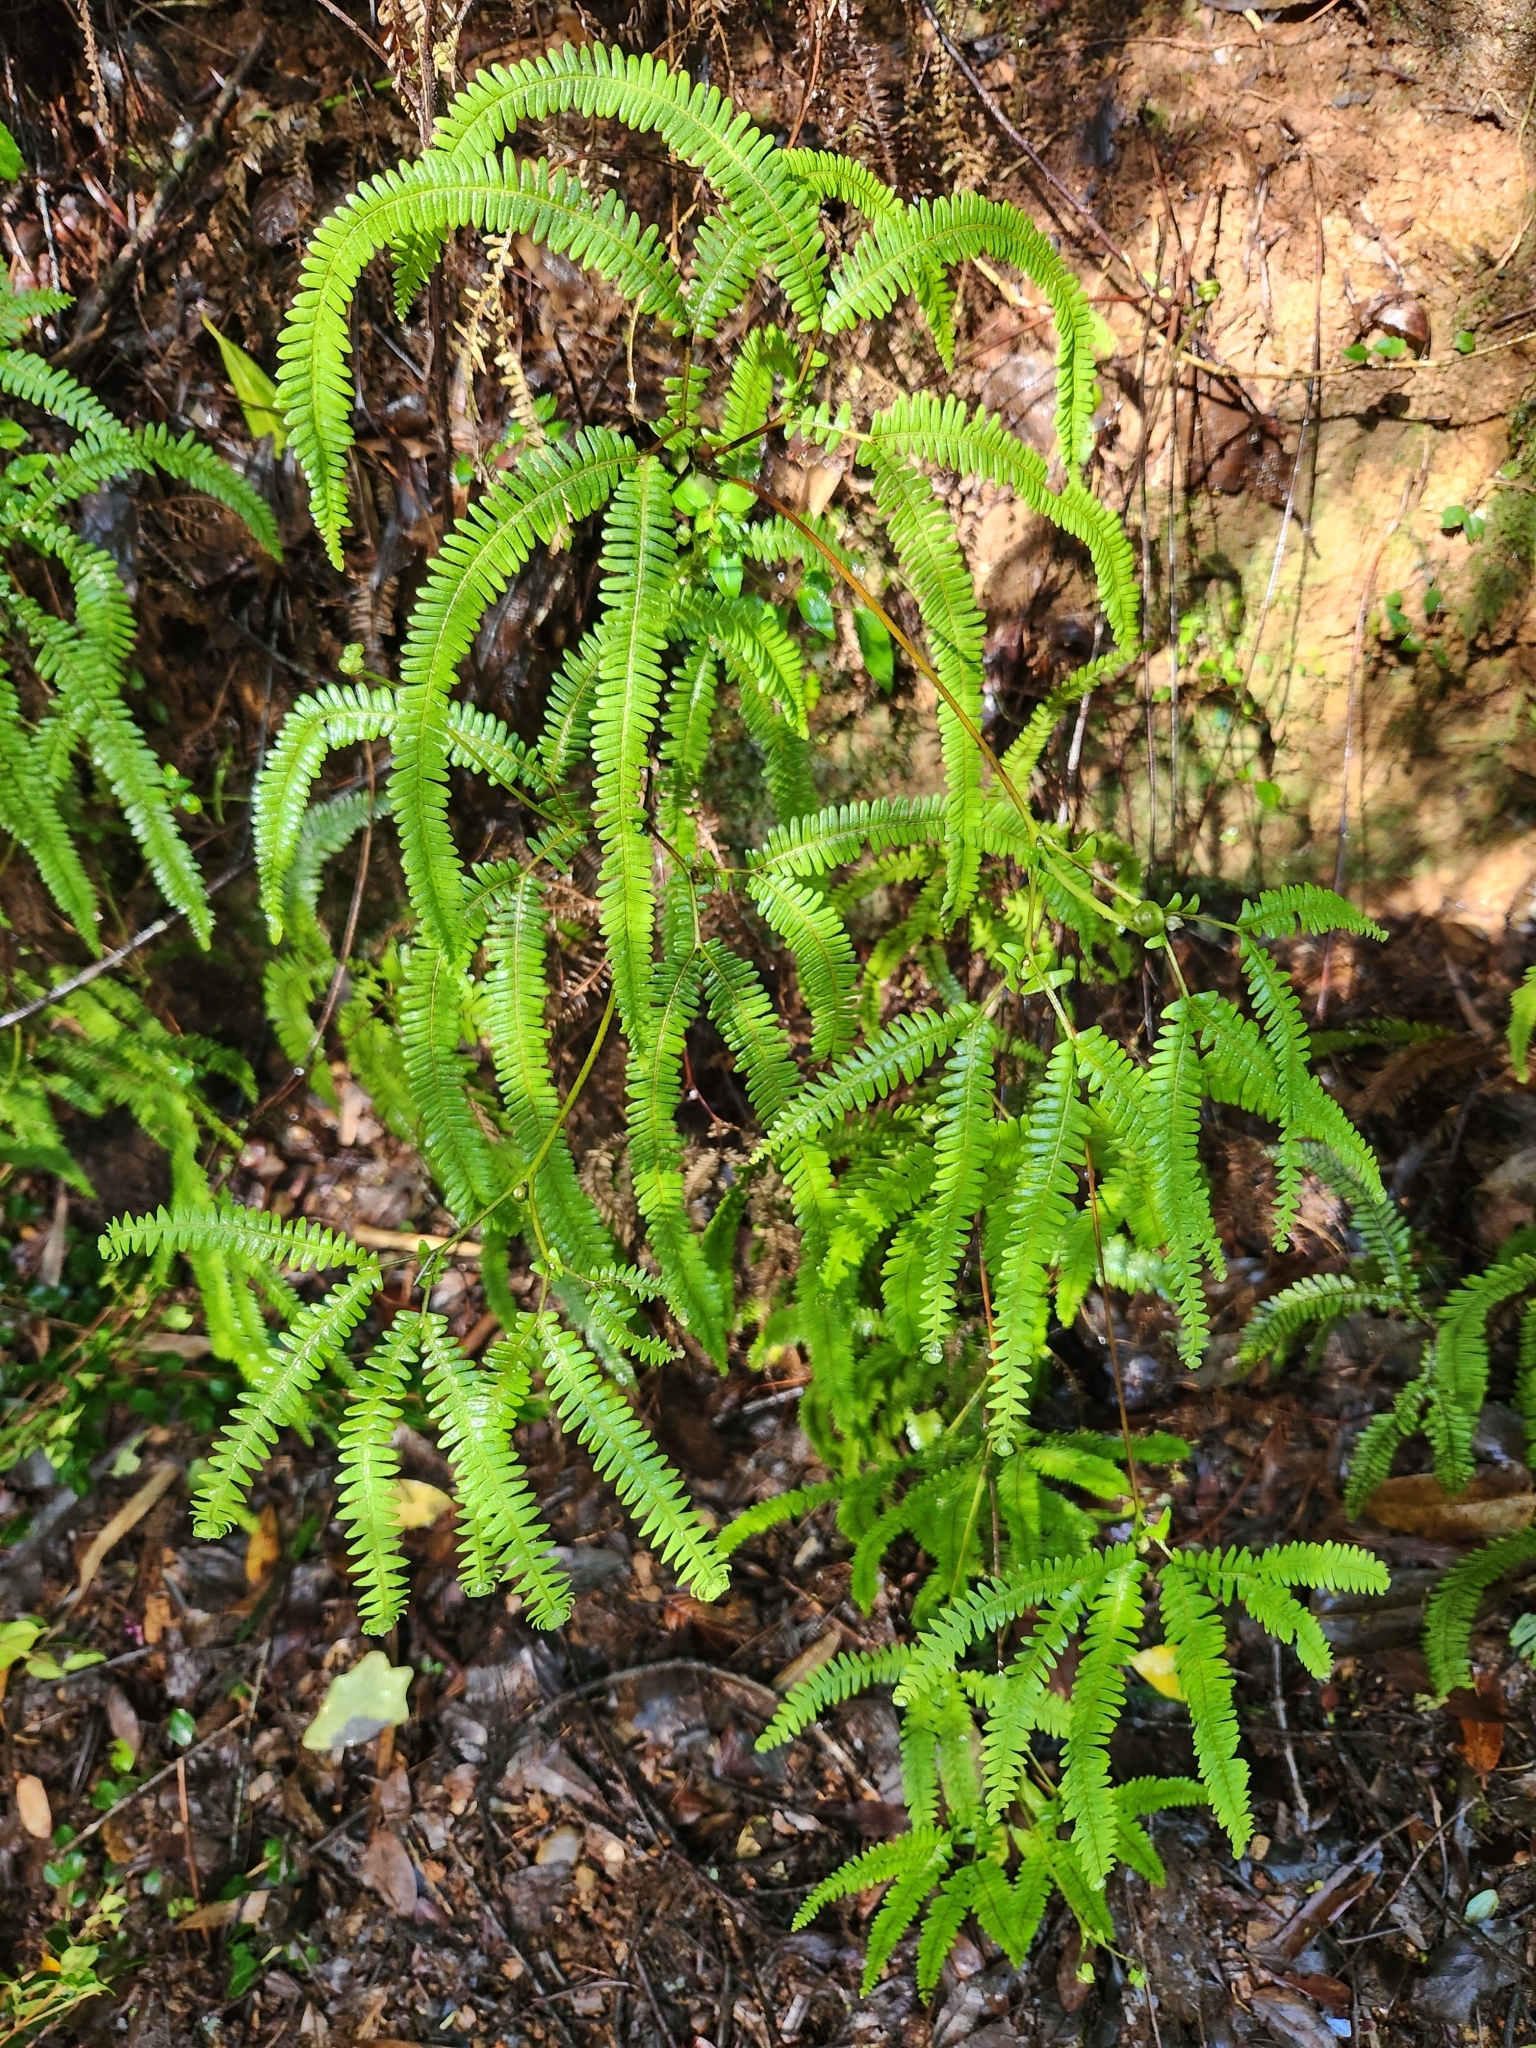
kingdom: Plantae
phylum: Tracheophyta
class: Polypodiopsida
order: Gleicheniales
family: Gleicheniaceae
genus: Sticherus
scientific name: Sticherus squamulosus
